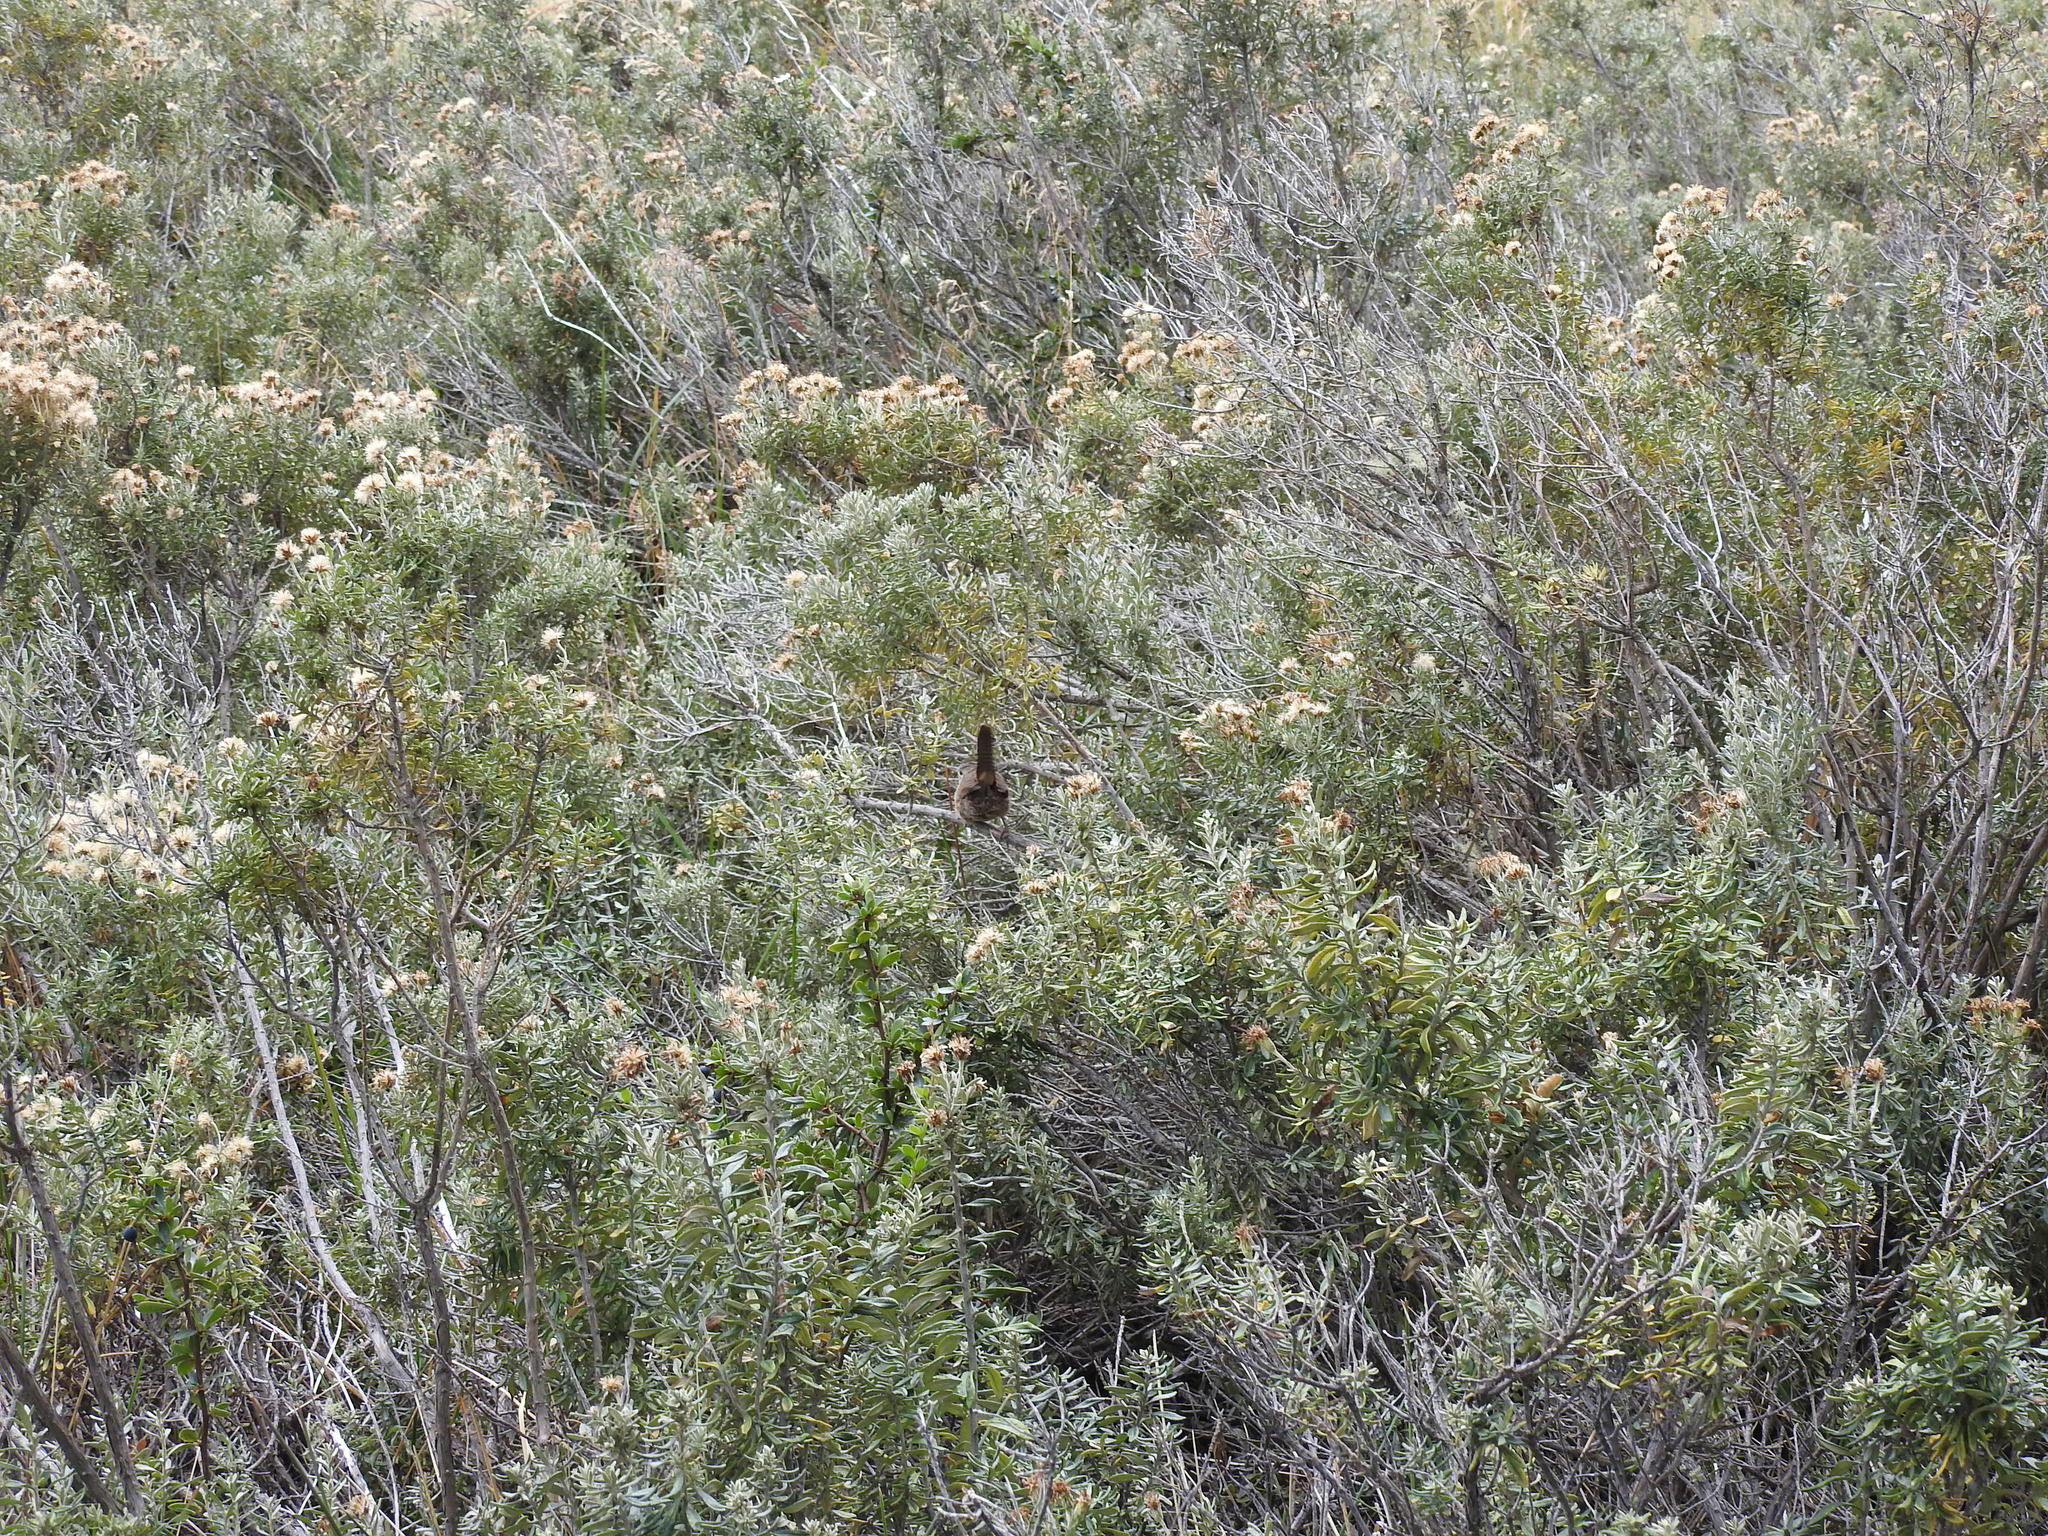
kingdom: Animalia
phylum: Chordata
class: Aves
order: Passeriformes
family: Troglodytidae
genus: Troglodytes
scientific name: Troglodytes aedon
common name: House wren
